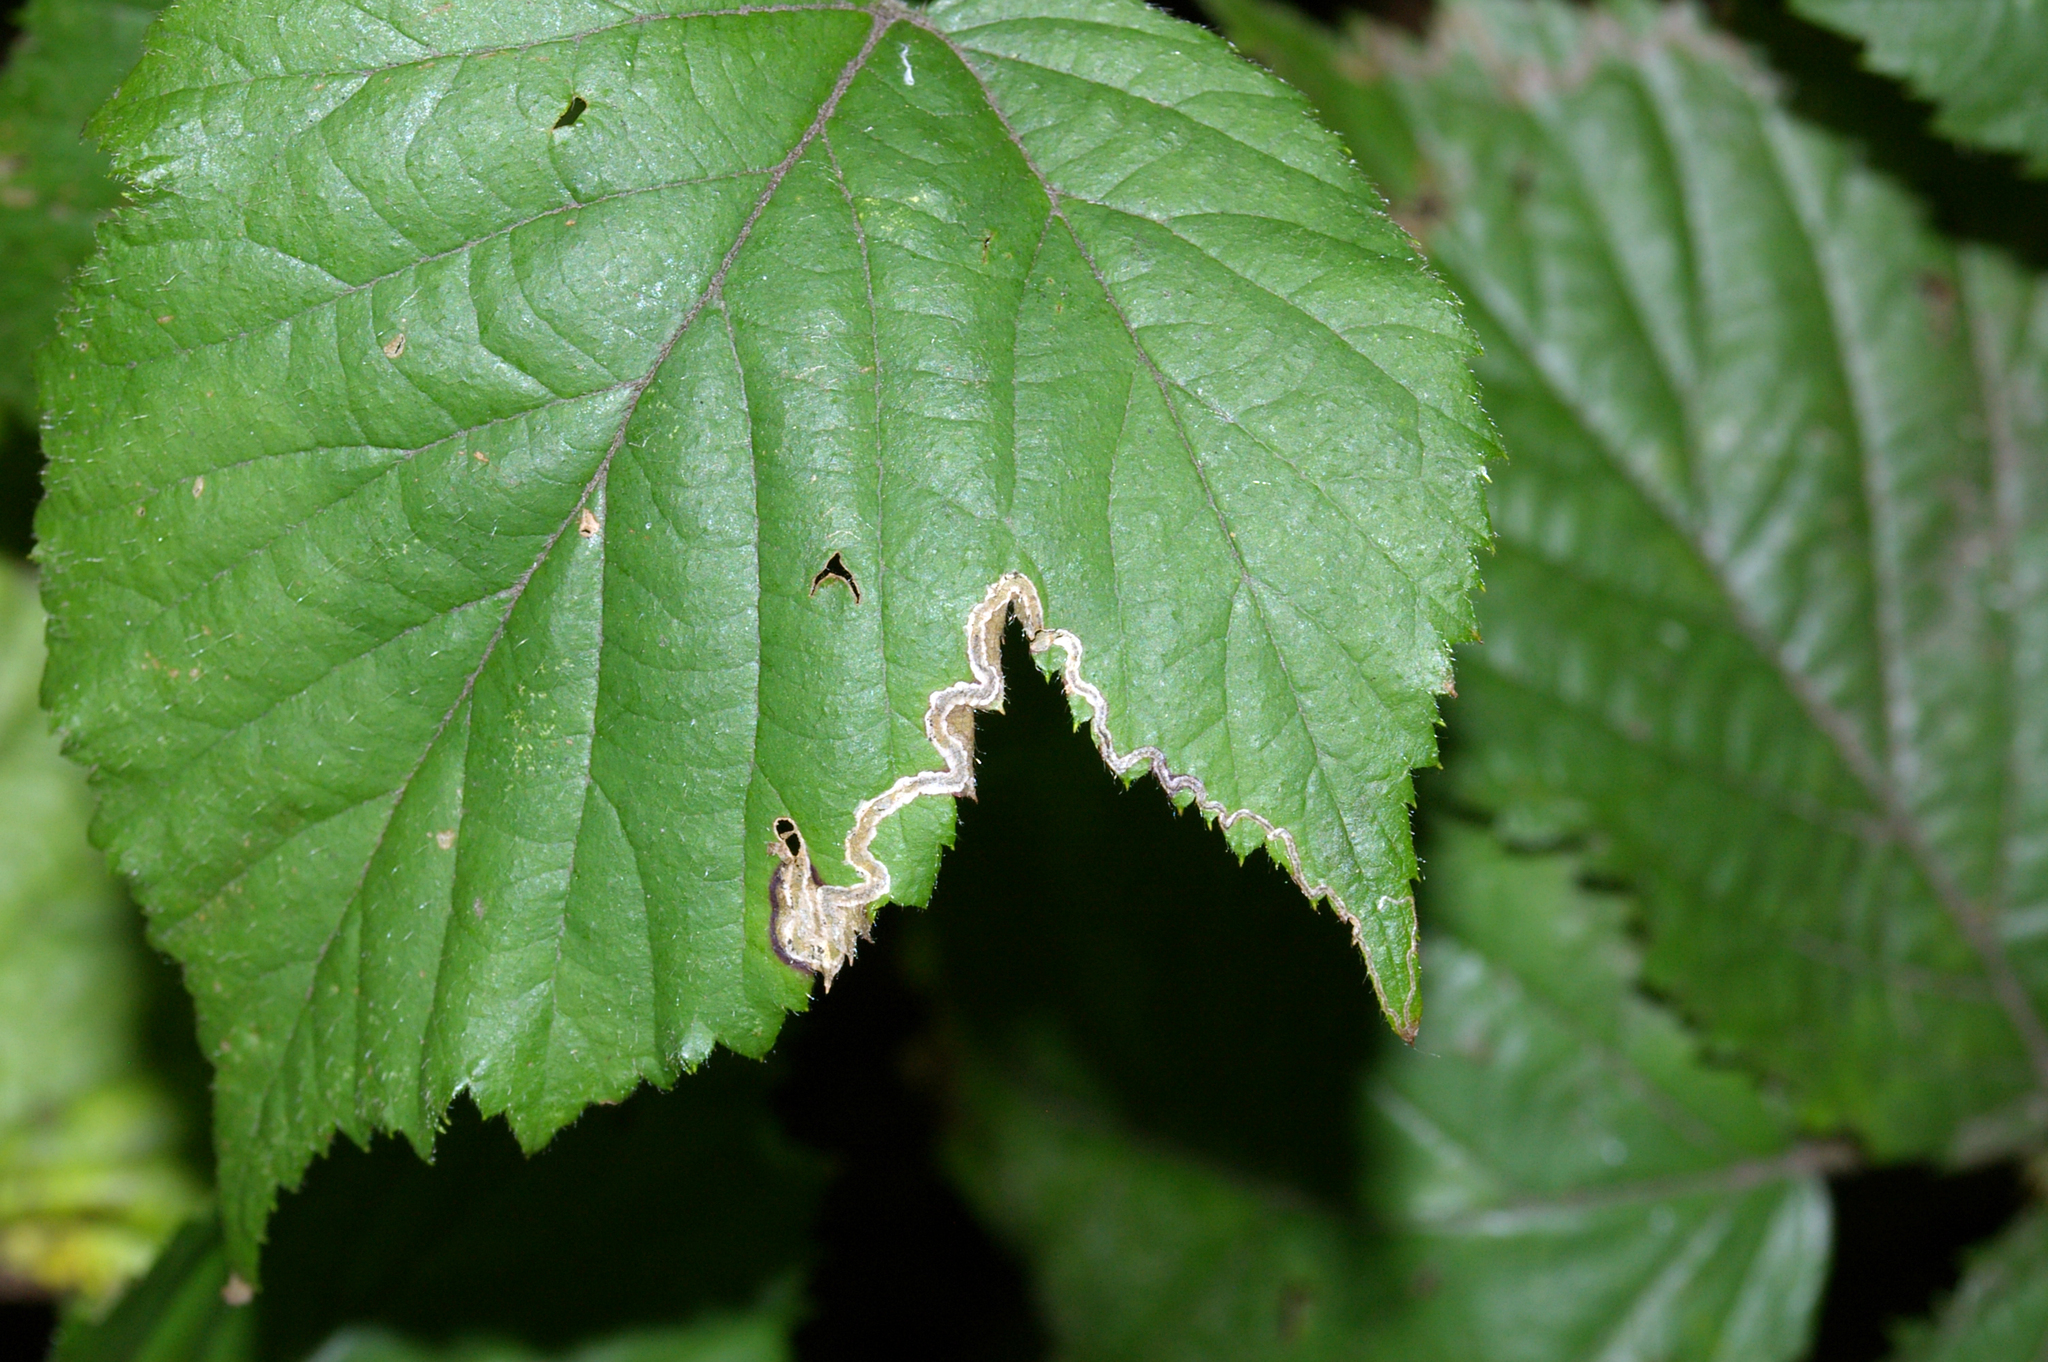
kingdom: Animalia
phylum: Arthropoda
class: Insecta
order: Lepidoptera
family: Nepticulidae
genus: Stigmella
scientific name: Stigmella aurella
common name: Golden pigmy
